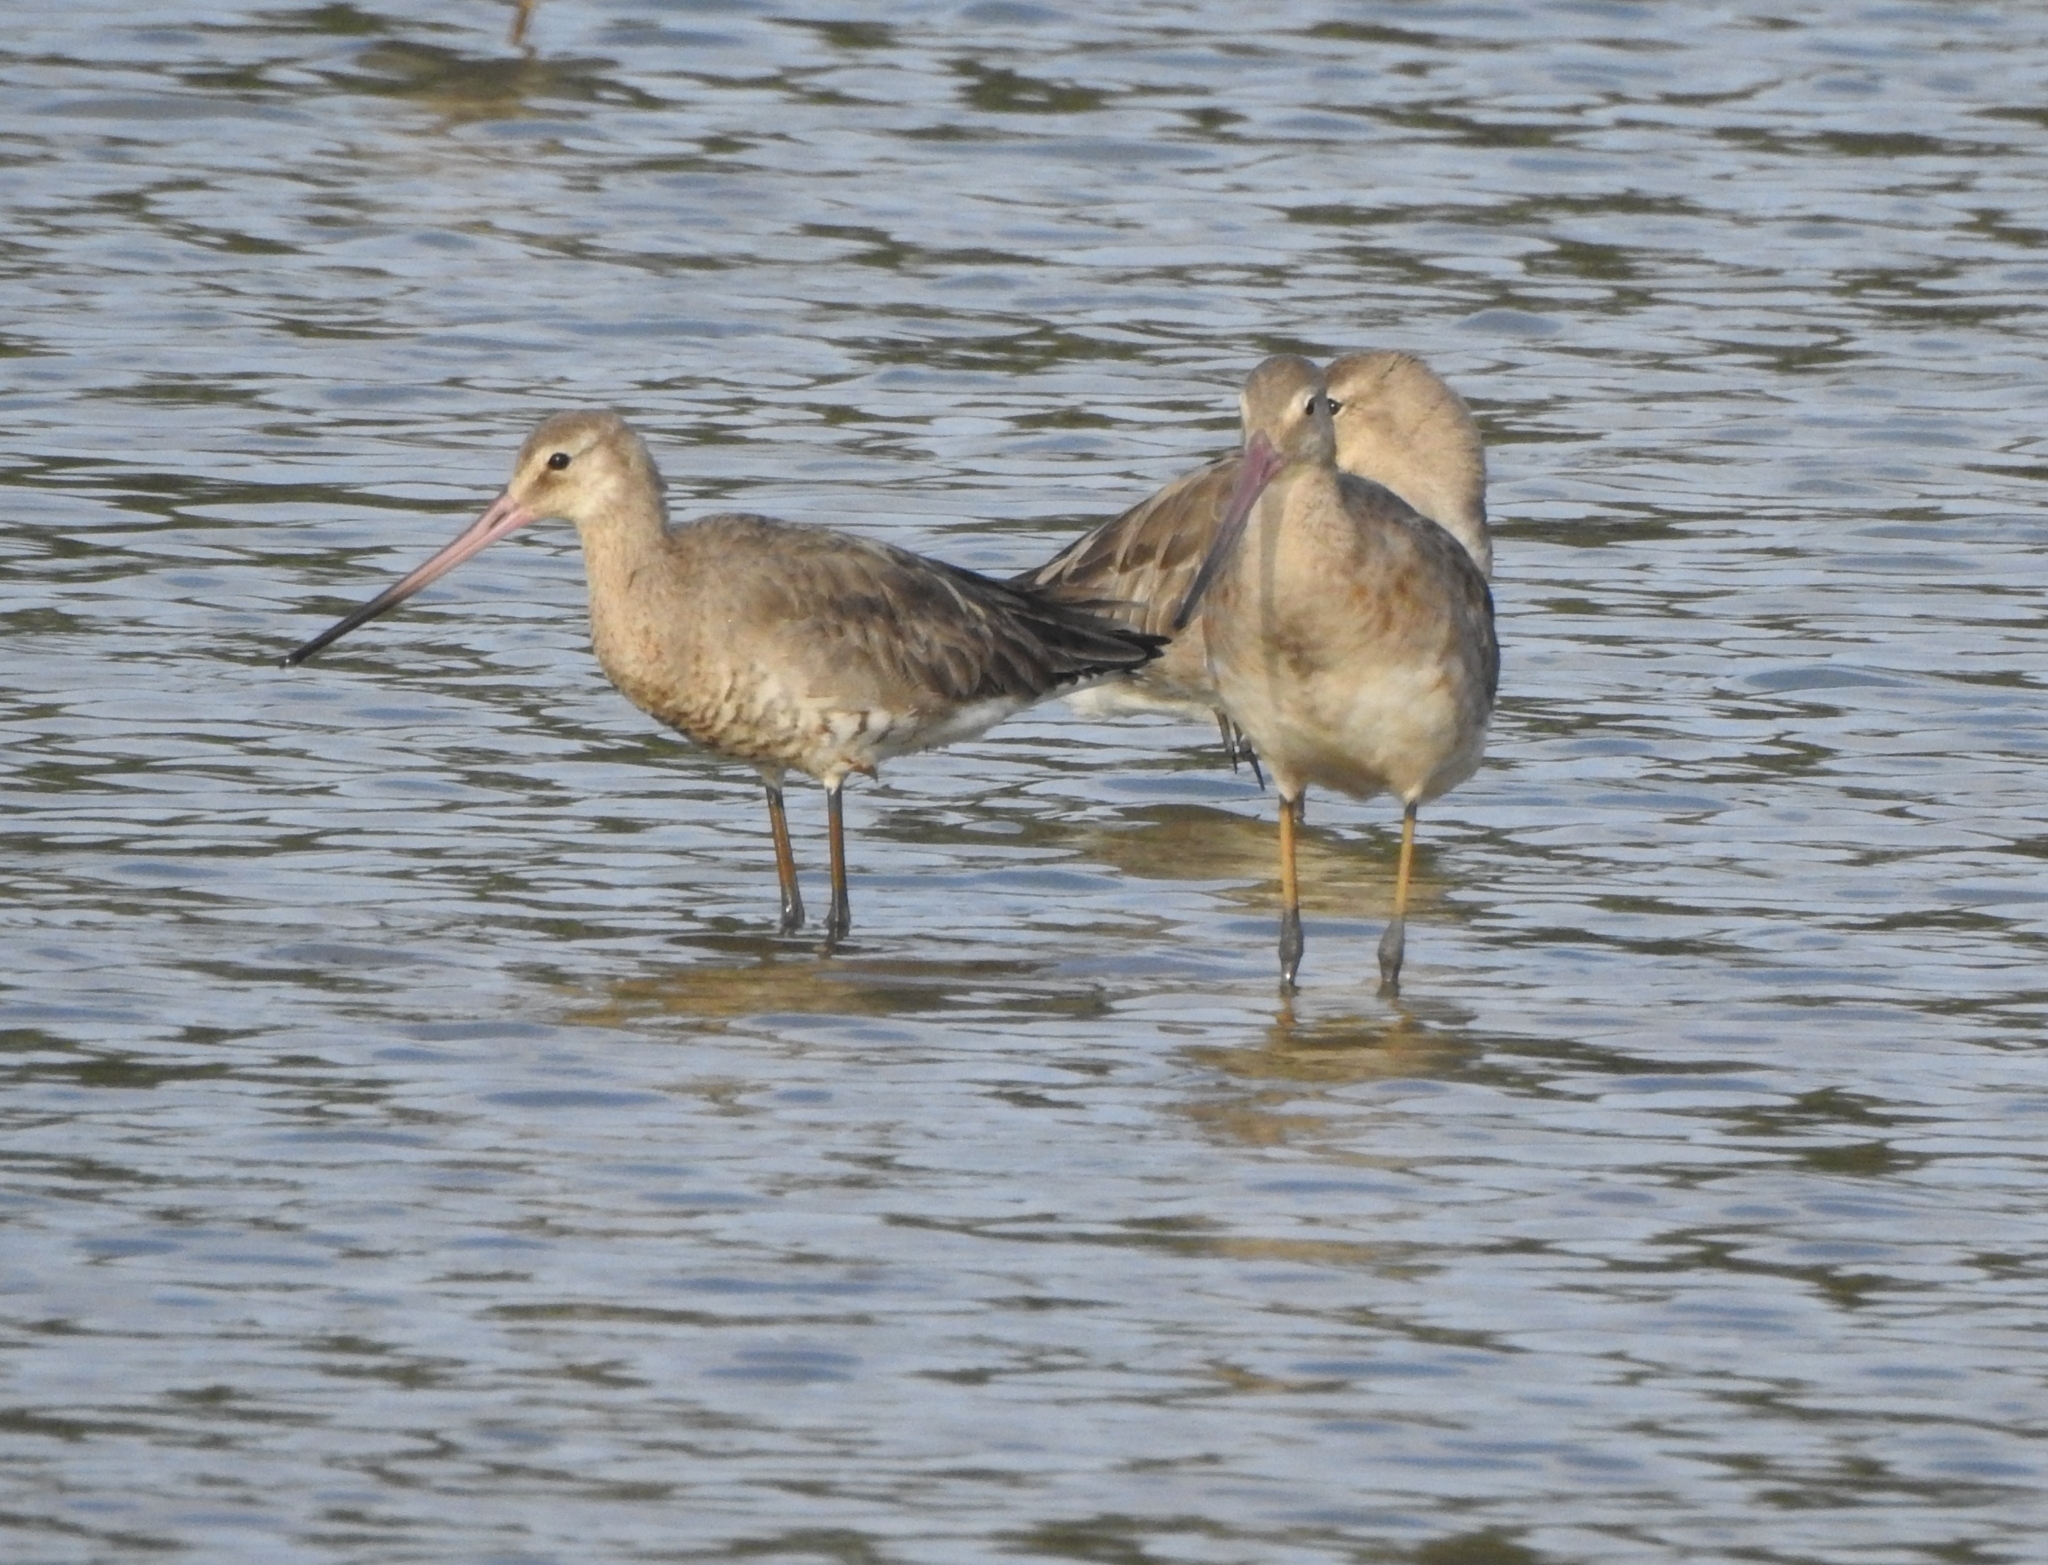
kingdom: Animalia
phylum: Chordata
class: Aves
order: Charadriiformes
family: Scolopacidae
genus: Limosa
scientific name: Limosa limosa
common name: Black-tailed godwit
